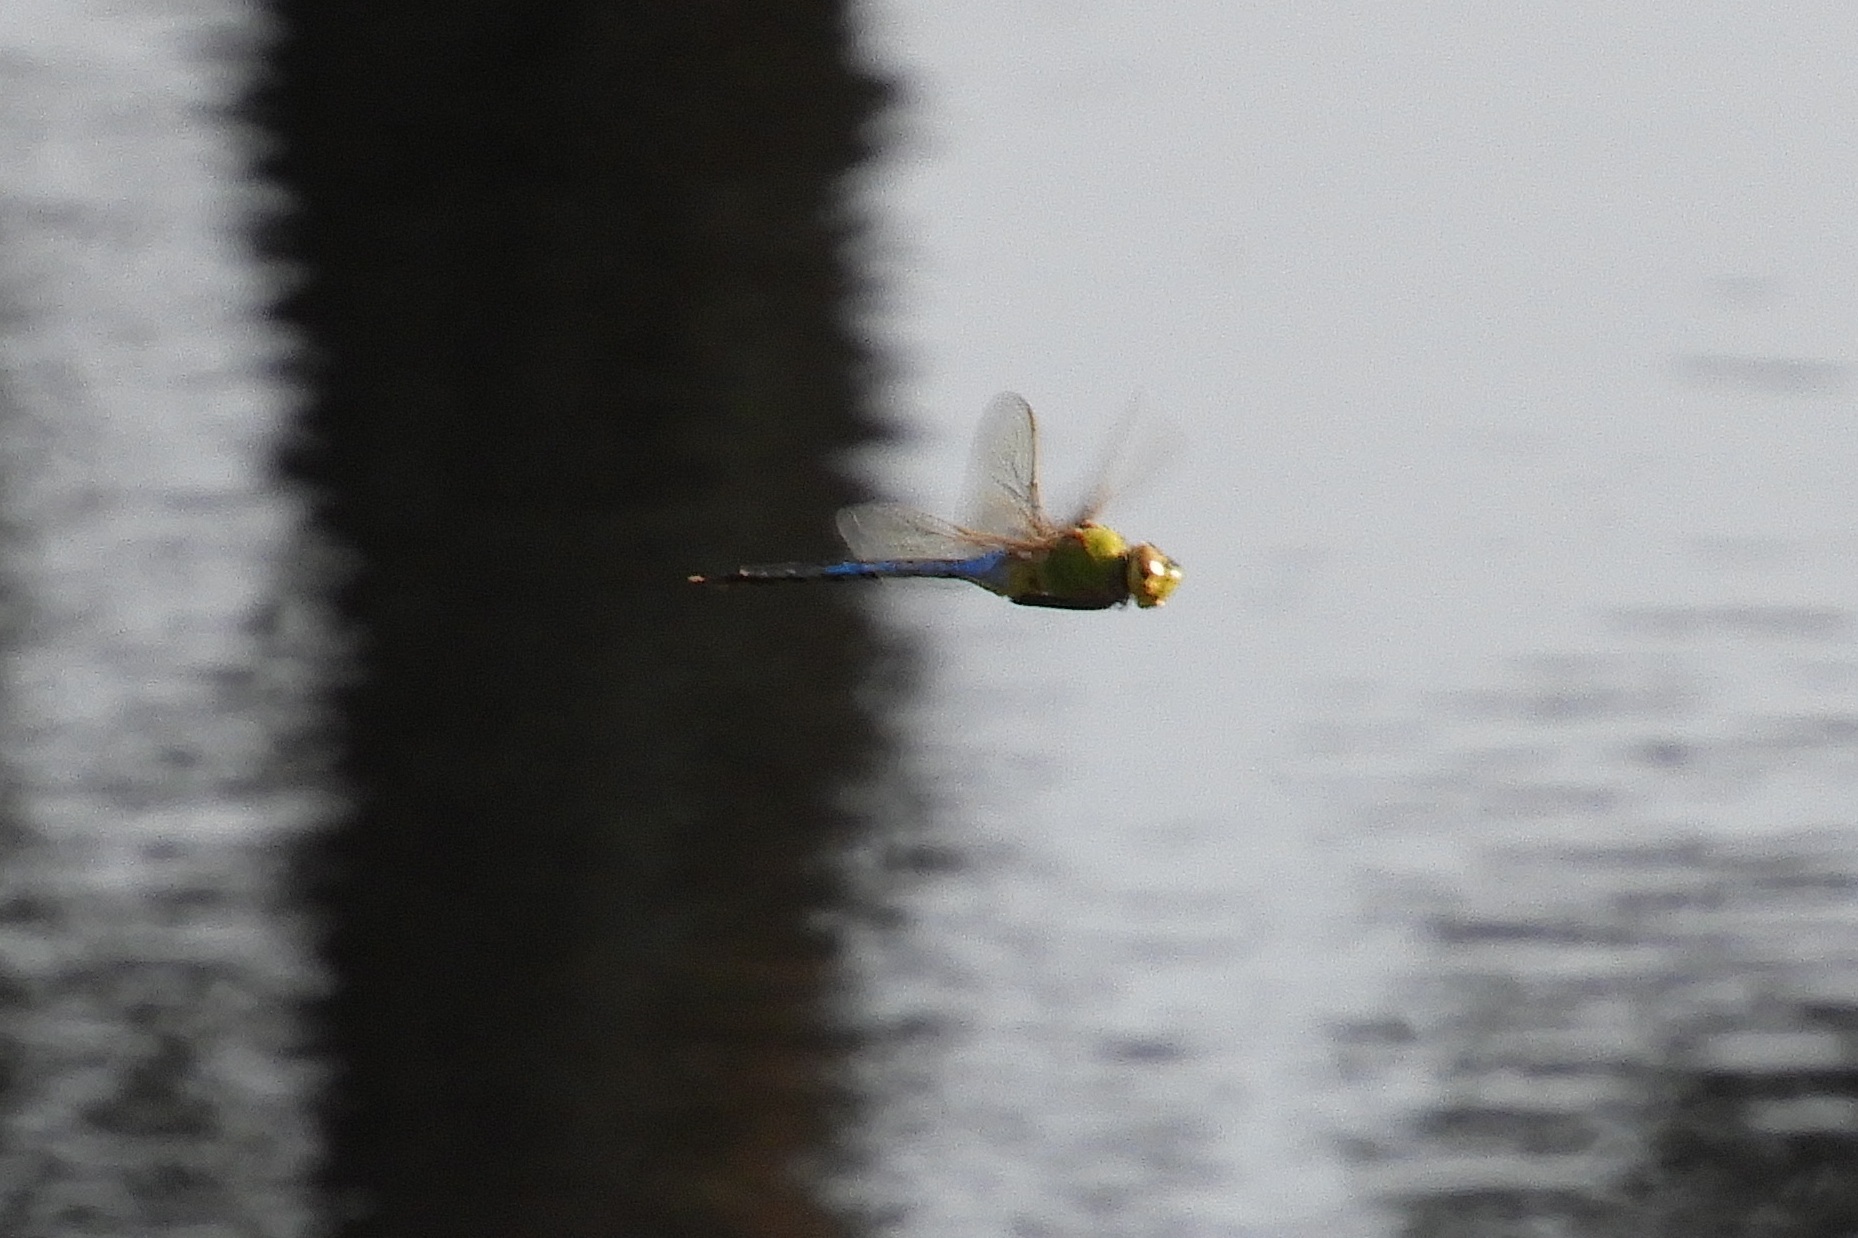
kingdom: Animalia
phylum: Arthropoda
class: Insecta
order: Odonata
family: Aeshnidae
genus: Anax
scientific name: Anax junius
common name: Common green darner
